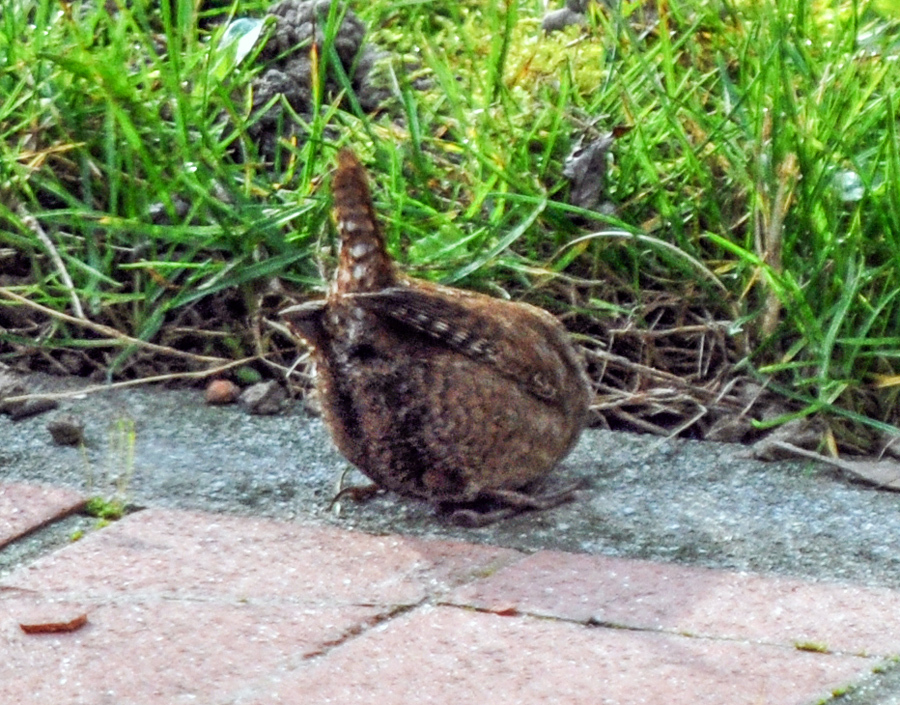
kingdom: Animalia
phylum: Chordata
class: Aves
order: Passeriformes
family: Troglodytidae
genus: Troglodytes
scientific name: Troglodytes troglodytes
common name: Eurasian wren
